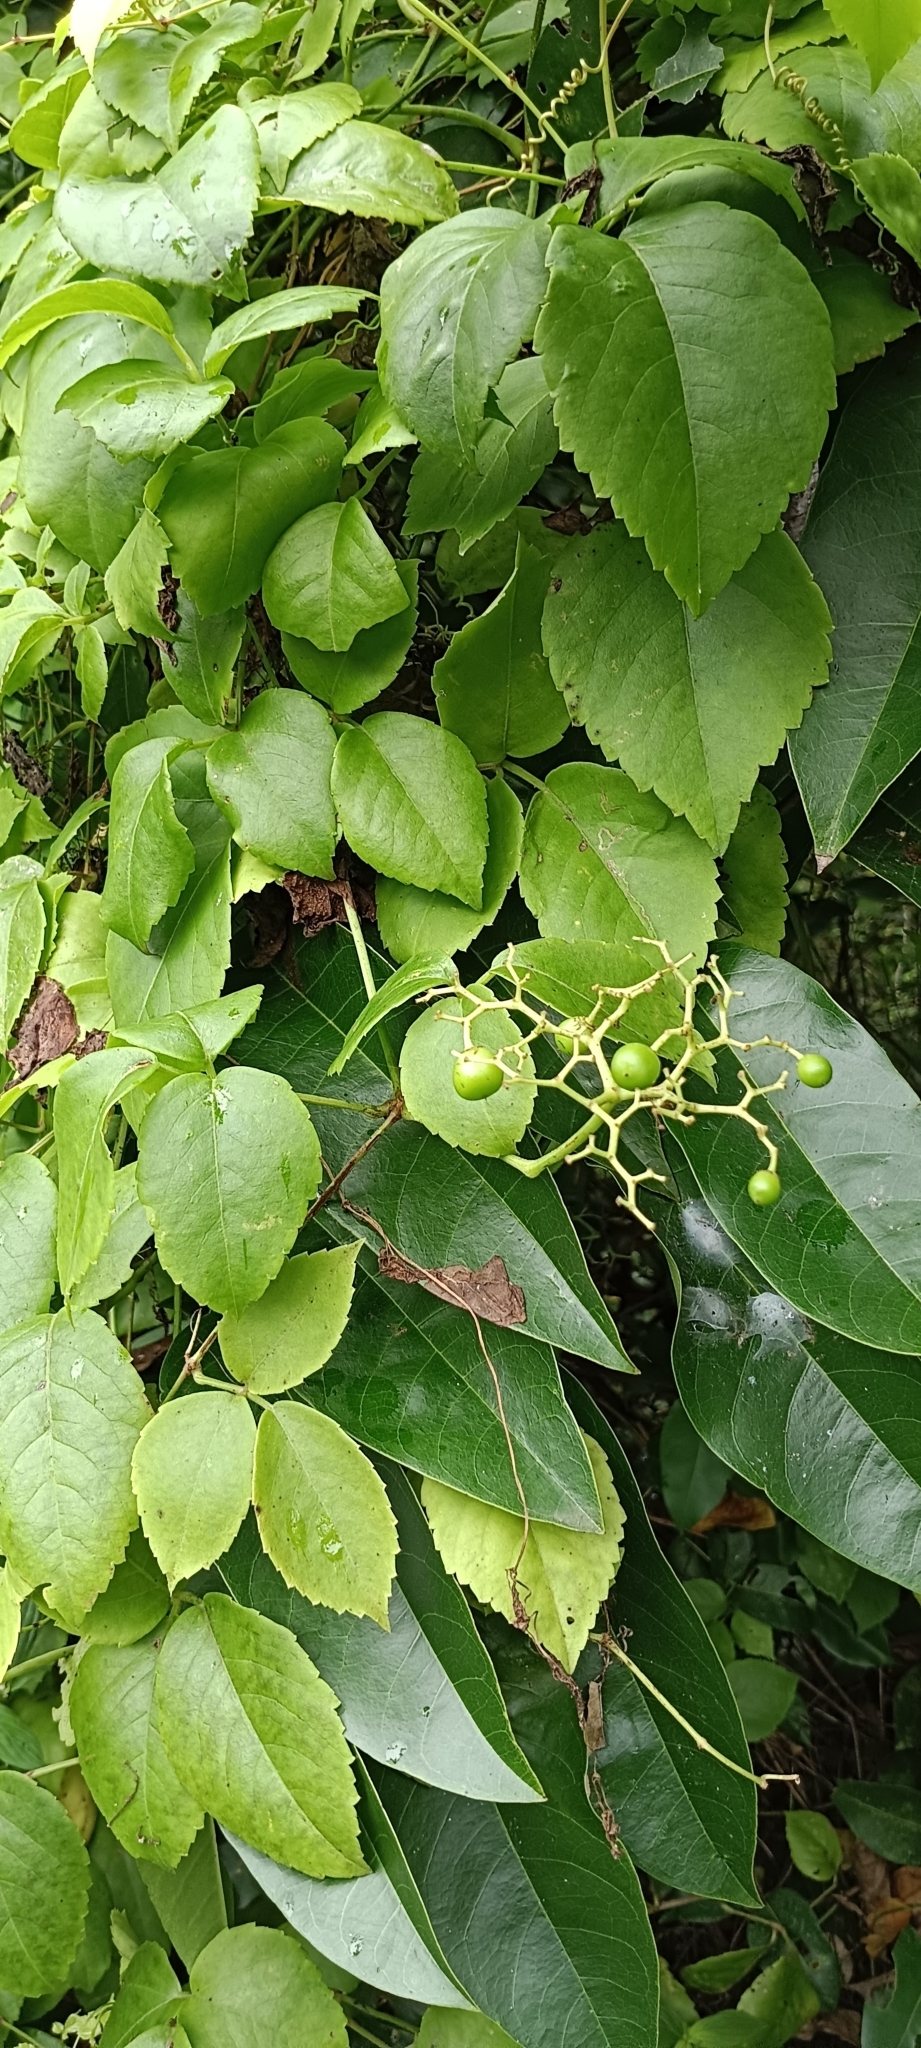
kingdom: Plantae
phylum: Tracheophyta
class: Magnoliopsida
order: Vitales
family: Vitaceae
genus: Causonis
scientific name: Causonis trifolia
